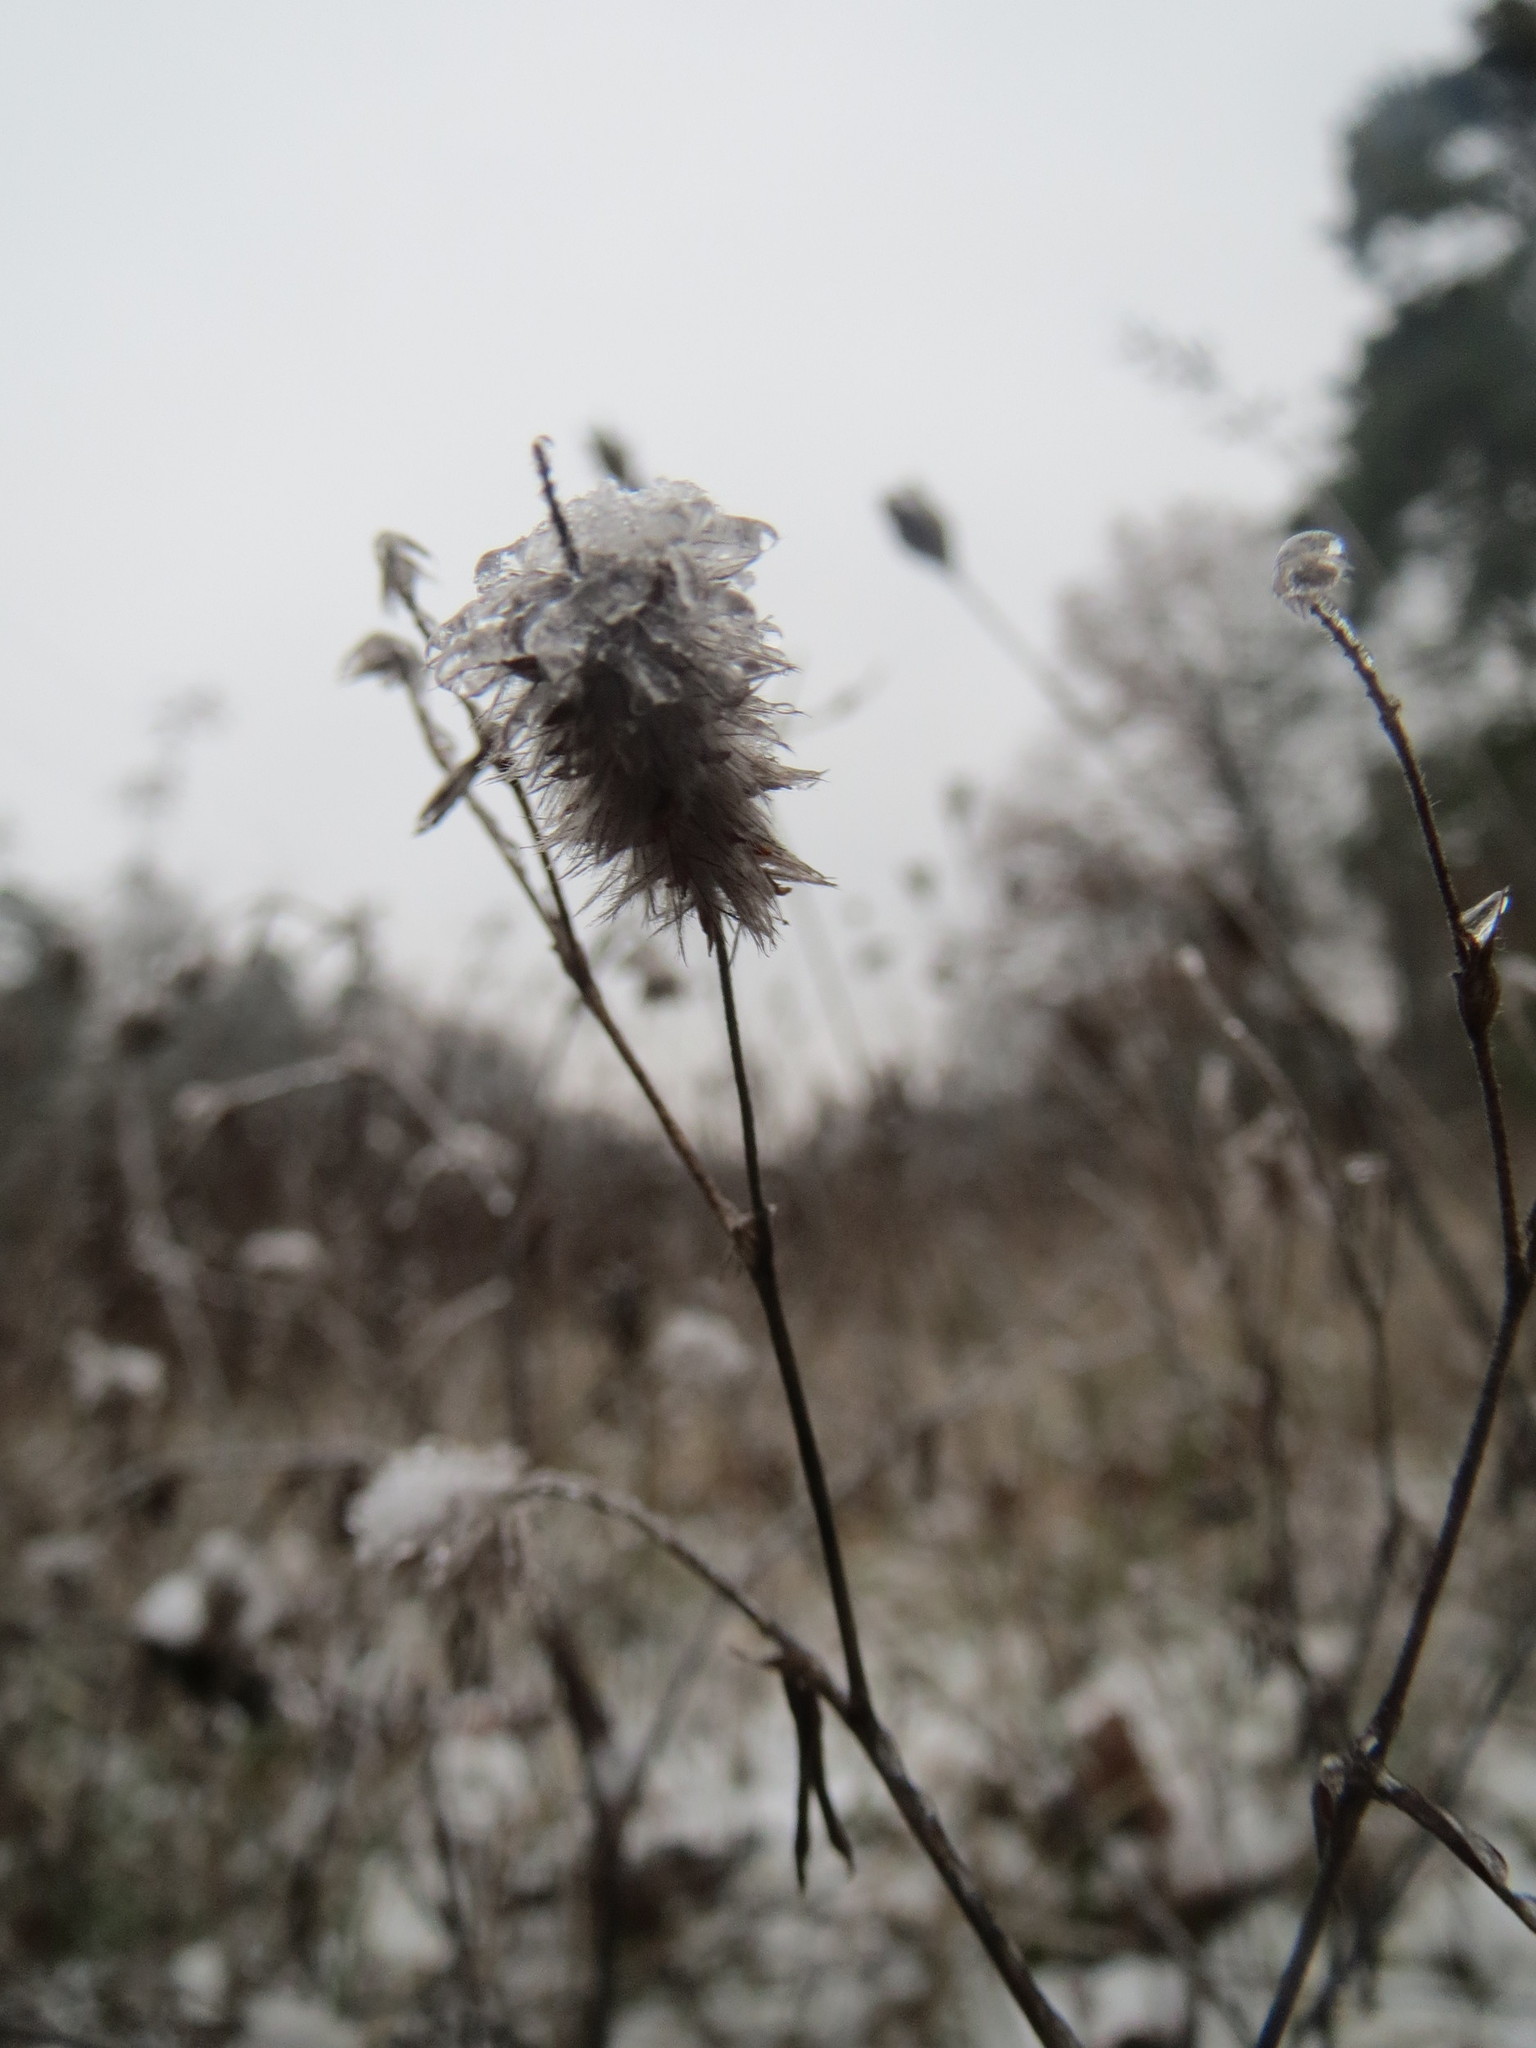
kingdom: Plantae
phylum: Tracheophyta
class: Magnoliopsida
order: Fabales
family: Fabaceae
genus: Trifolium
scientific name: Trifolium arvense
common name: Hare's-foot clover
